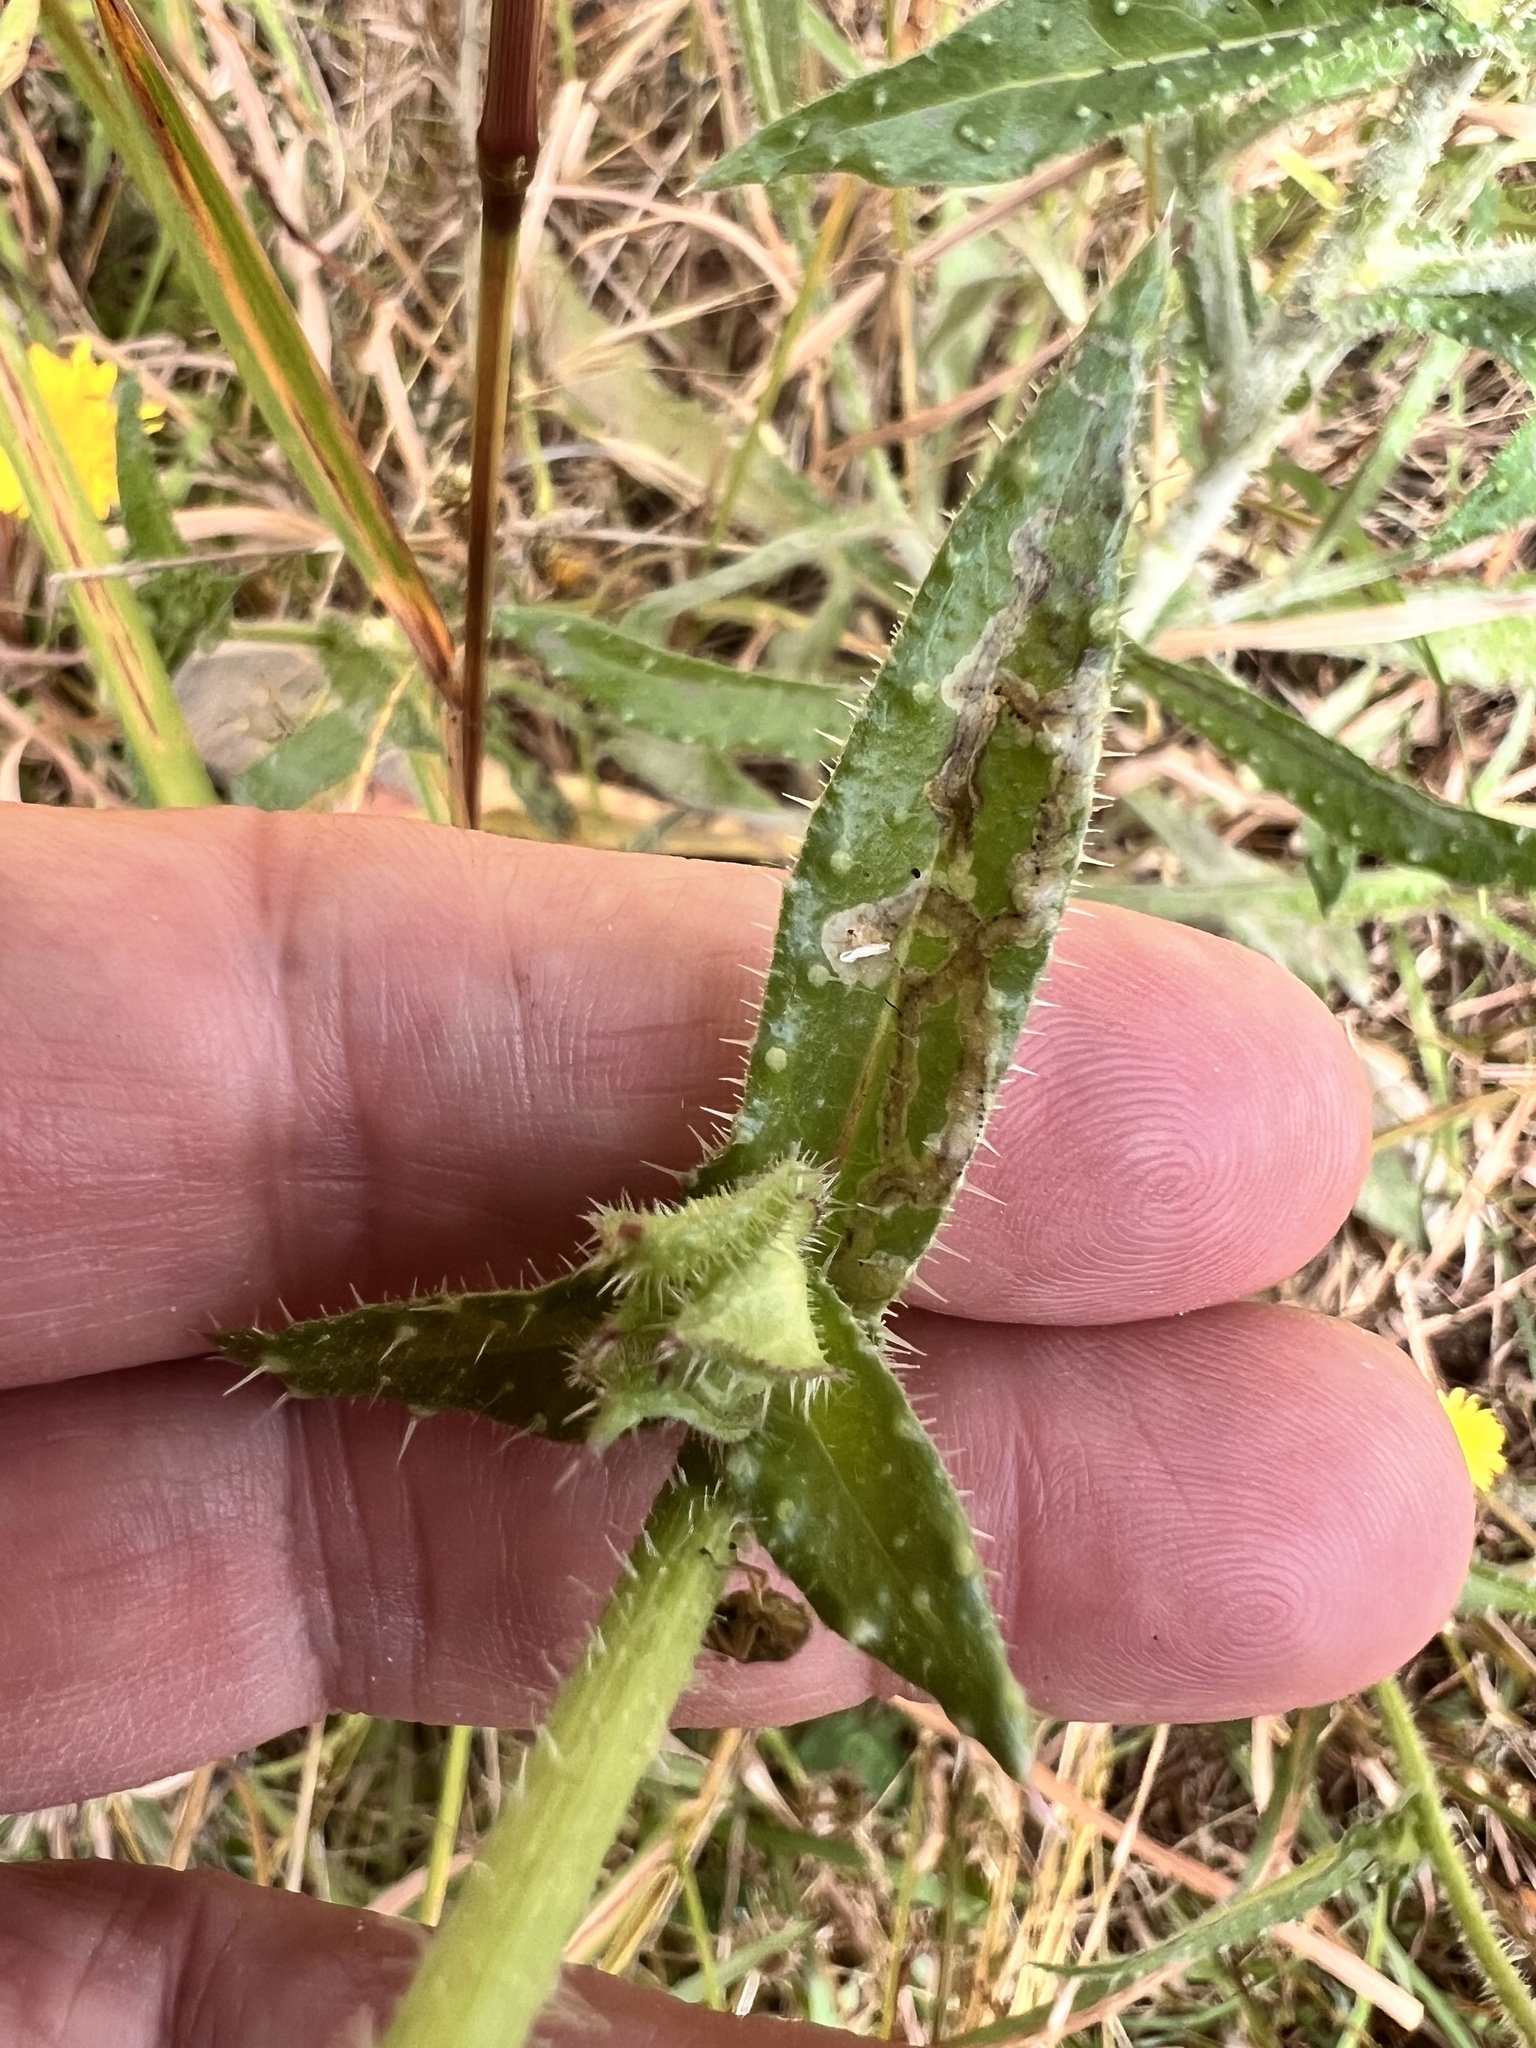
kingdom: Plantae
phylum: Tracheophyta
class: Magnoliopsida
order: Asterales
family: Asteraceae
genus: Helminthotheca
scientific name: Helminthotheca echioides
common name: Ox-tongue
